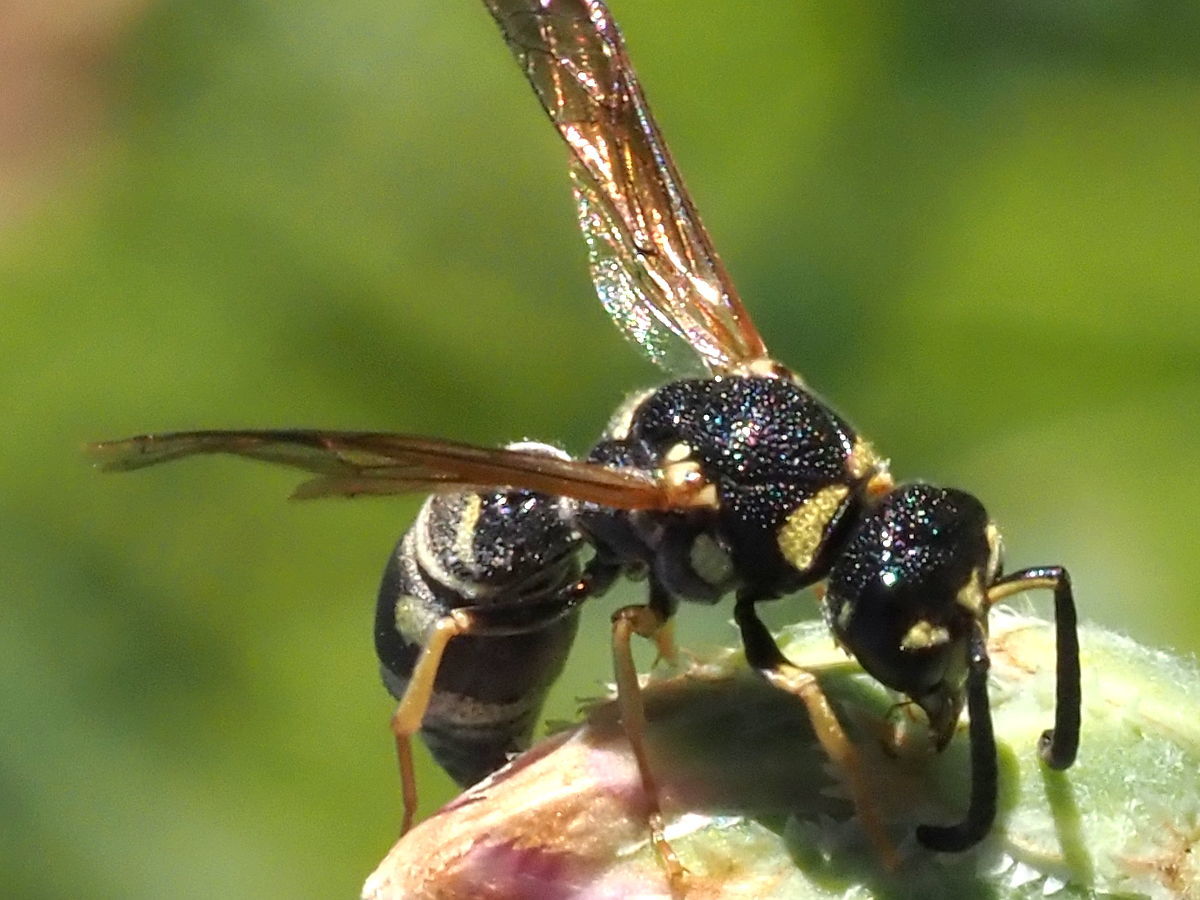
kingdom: Animalia
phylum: Arthropoda
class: Insecta
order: Hymenoptera
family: Eumenidae
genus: Parancistrocerus
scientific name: Parancistrocerus leionotus
